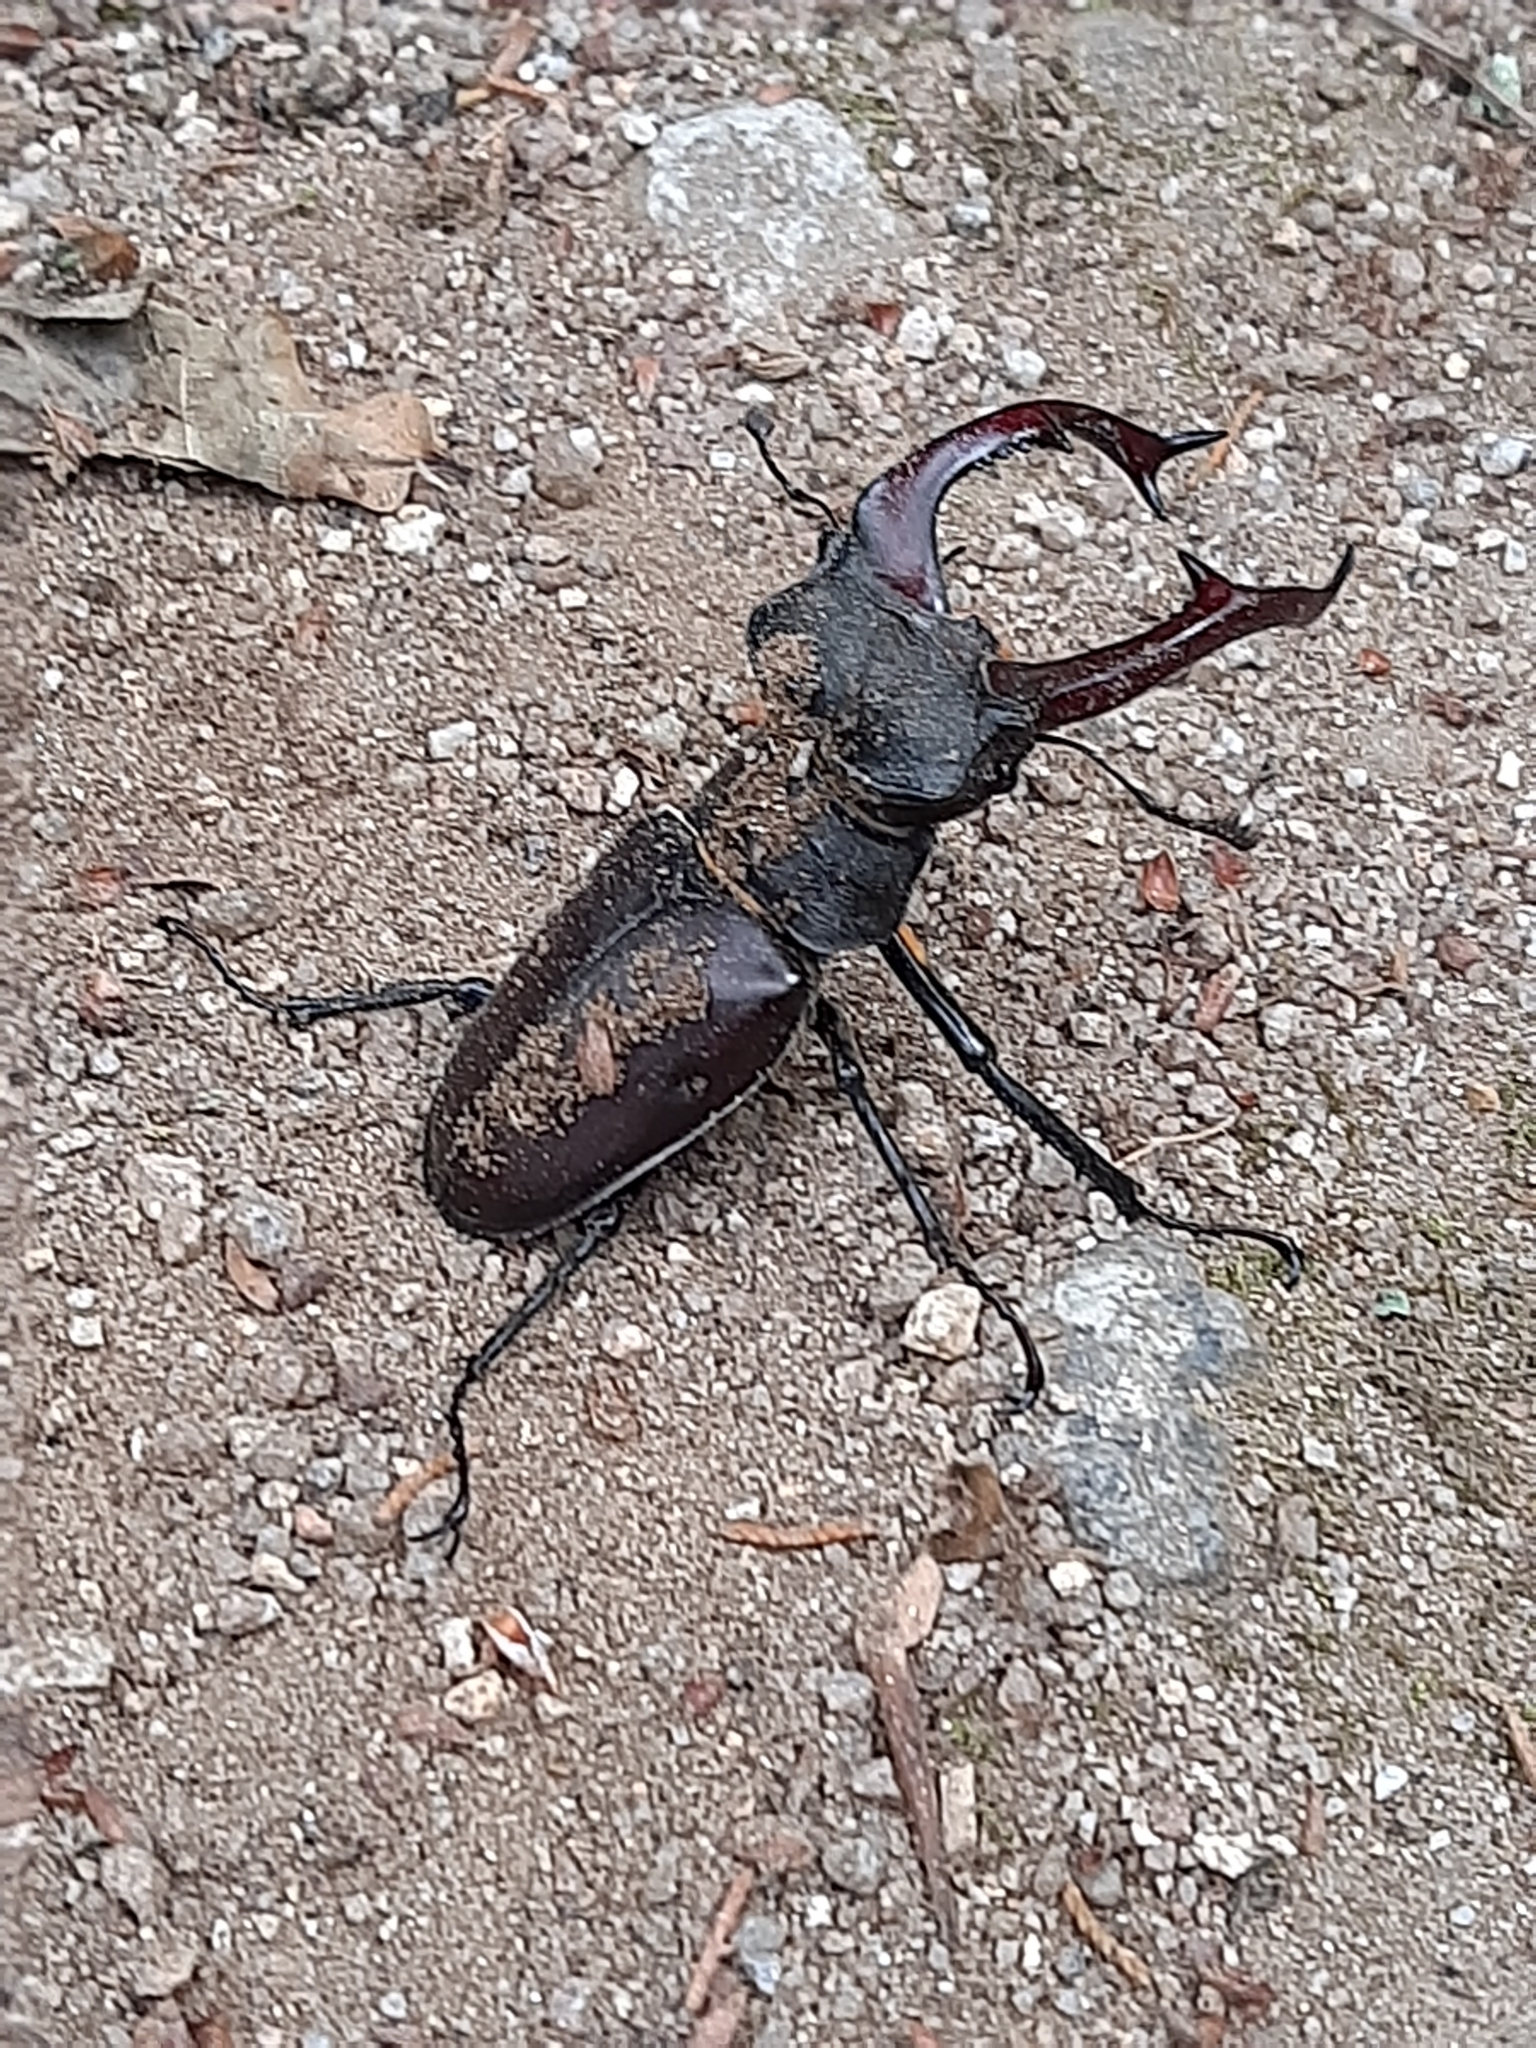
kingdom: Animalia
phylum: Arthropoda
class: Insecta
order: Coleoptera
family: Lucanidae
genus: Lucanus
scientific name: Lucanus cervus
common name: Stag beetle
